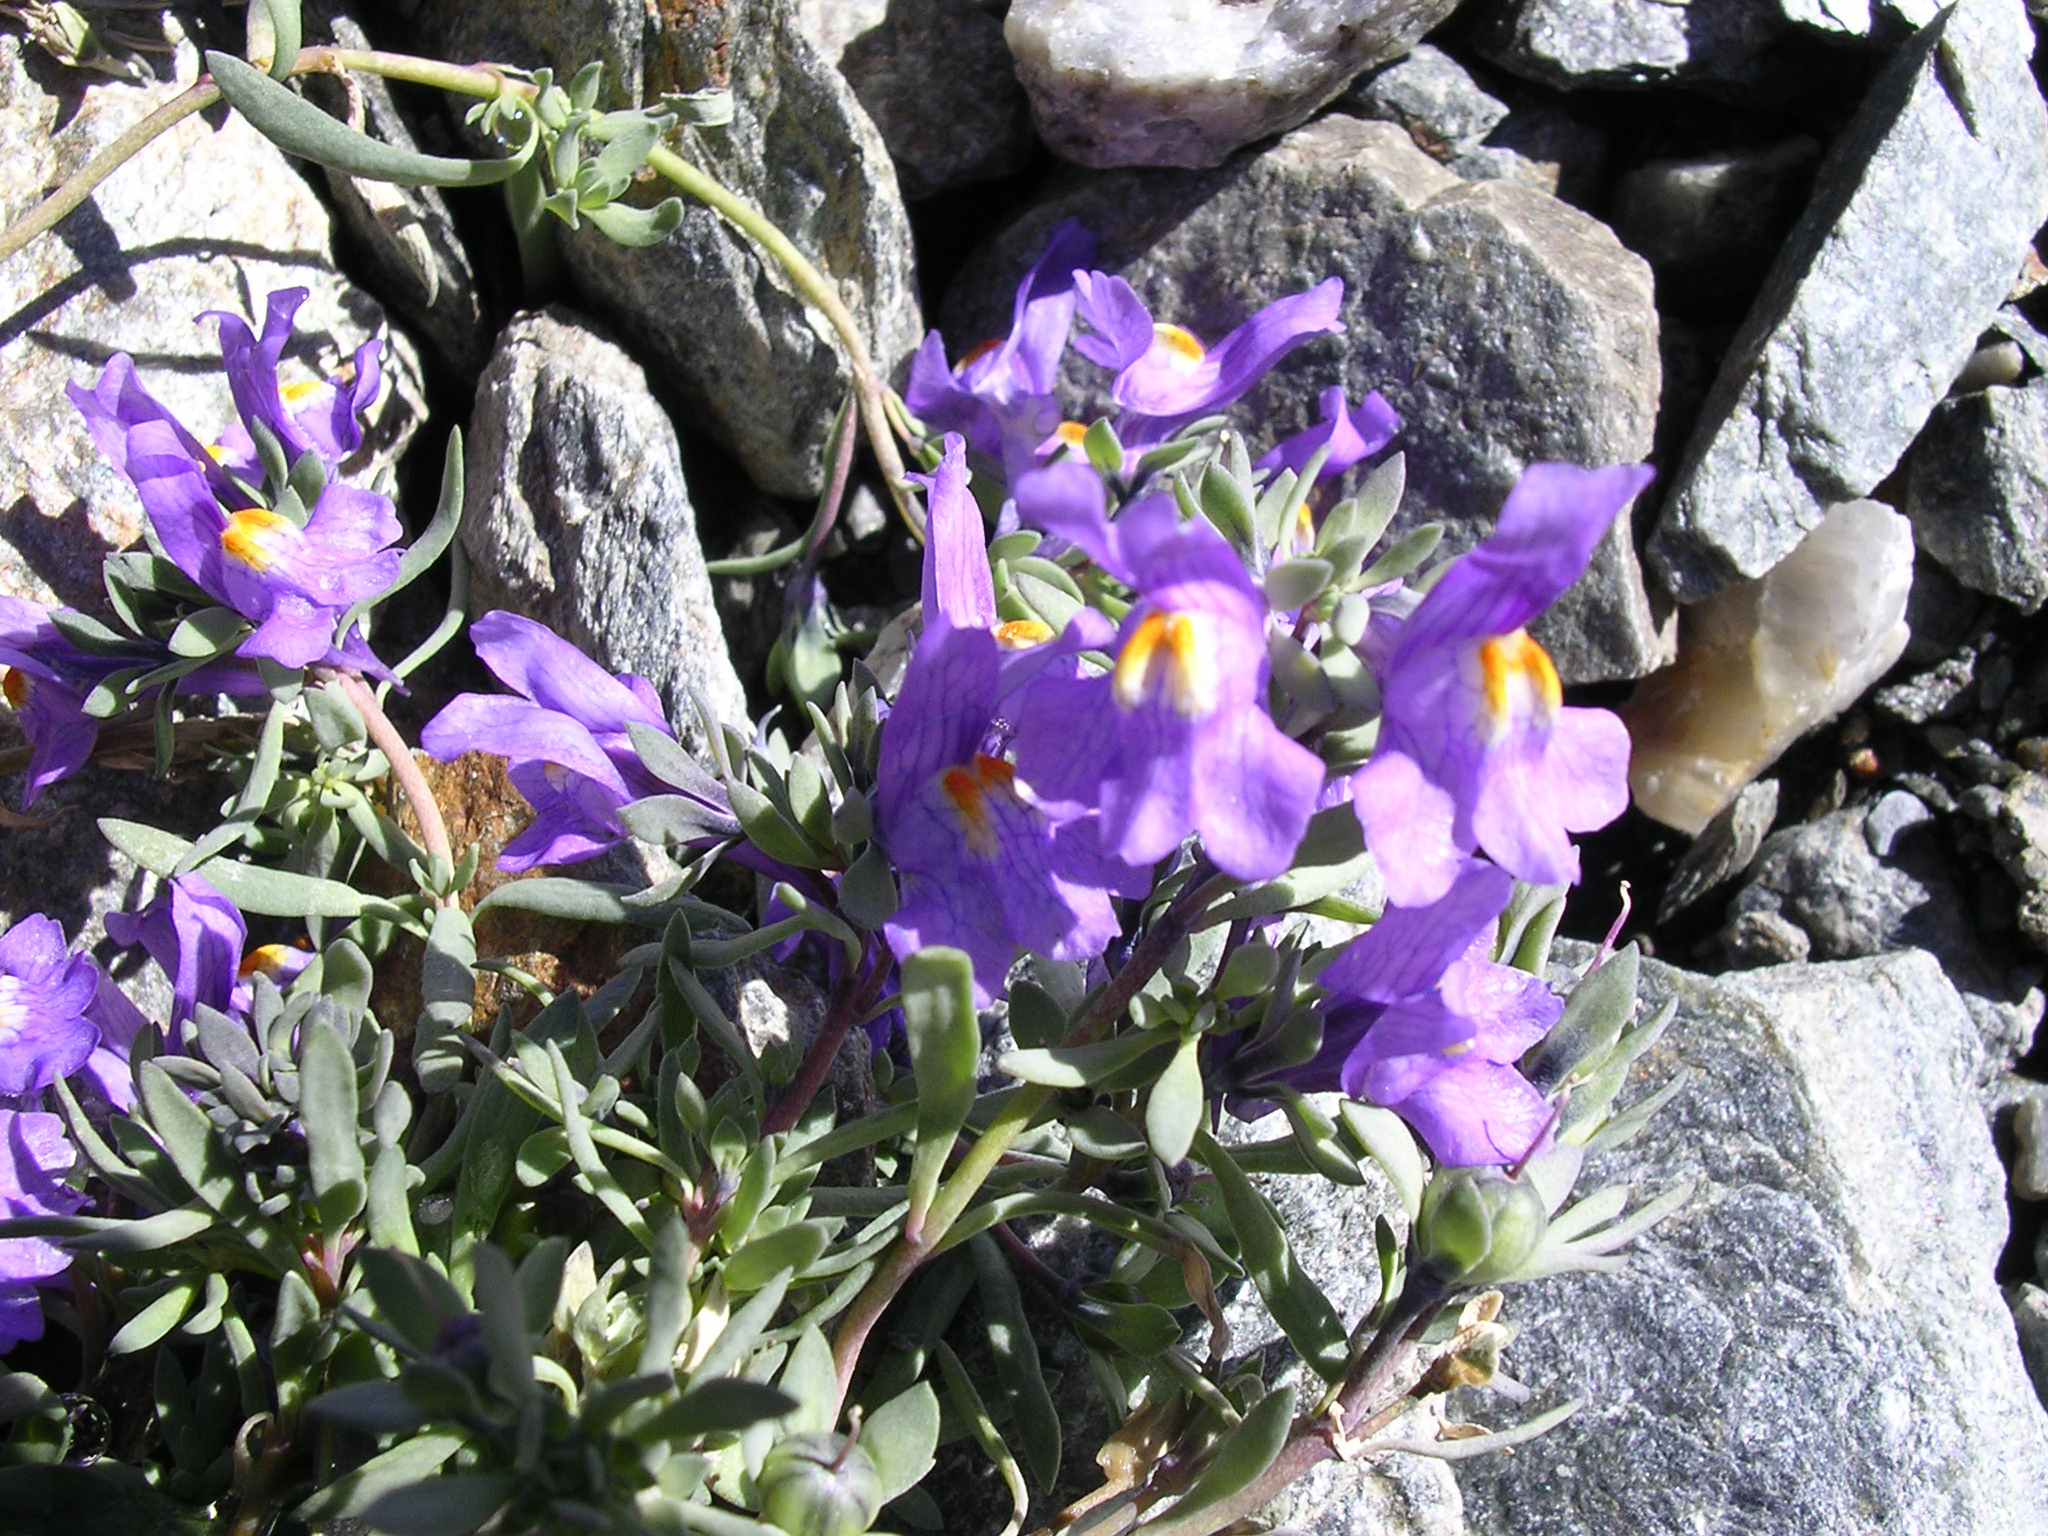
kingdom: Plantae
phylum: Tracheophyta
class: Magnoliopsida
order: Lamiales
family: Plantaginaceae
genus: Linaria
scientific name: Linaria alpina
